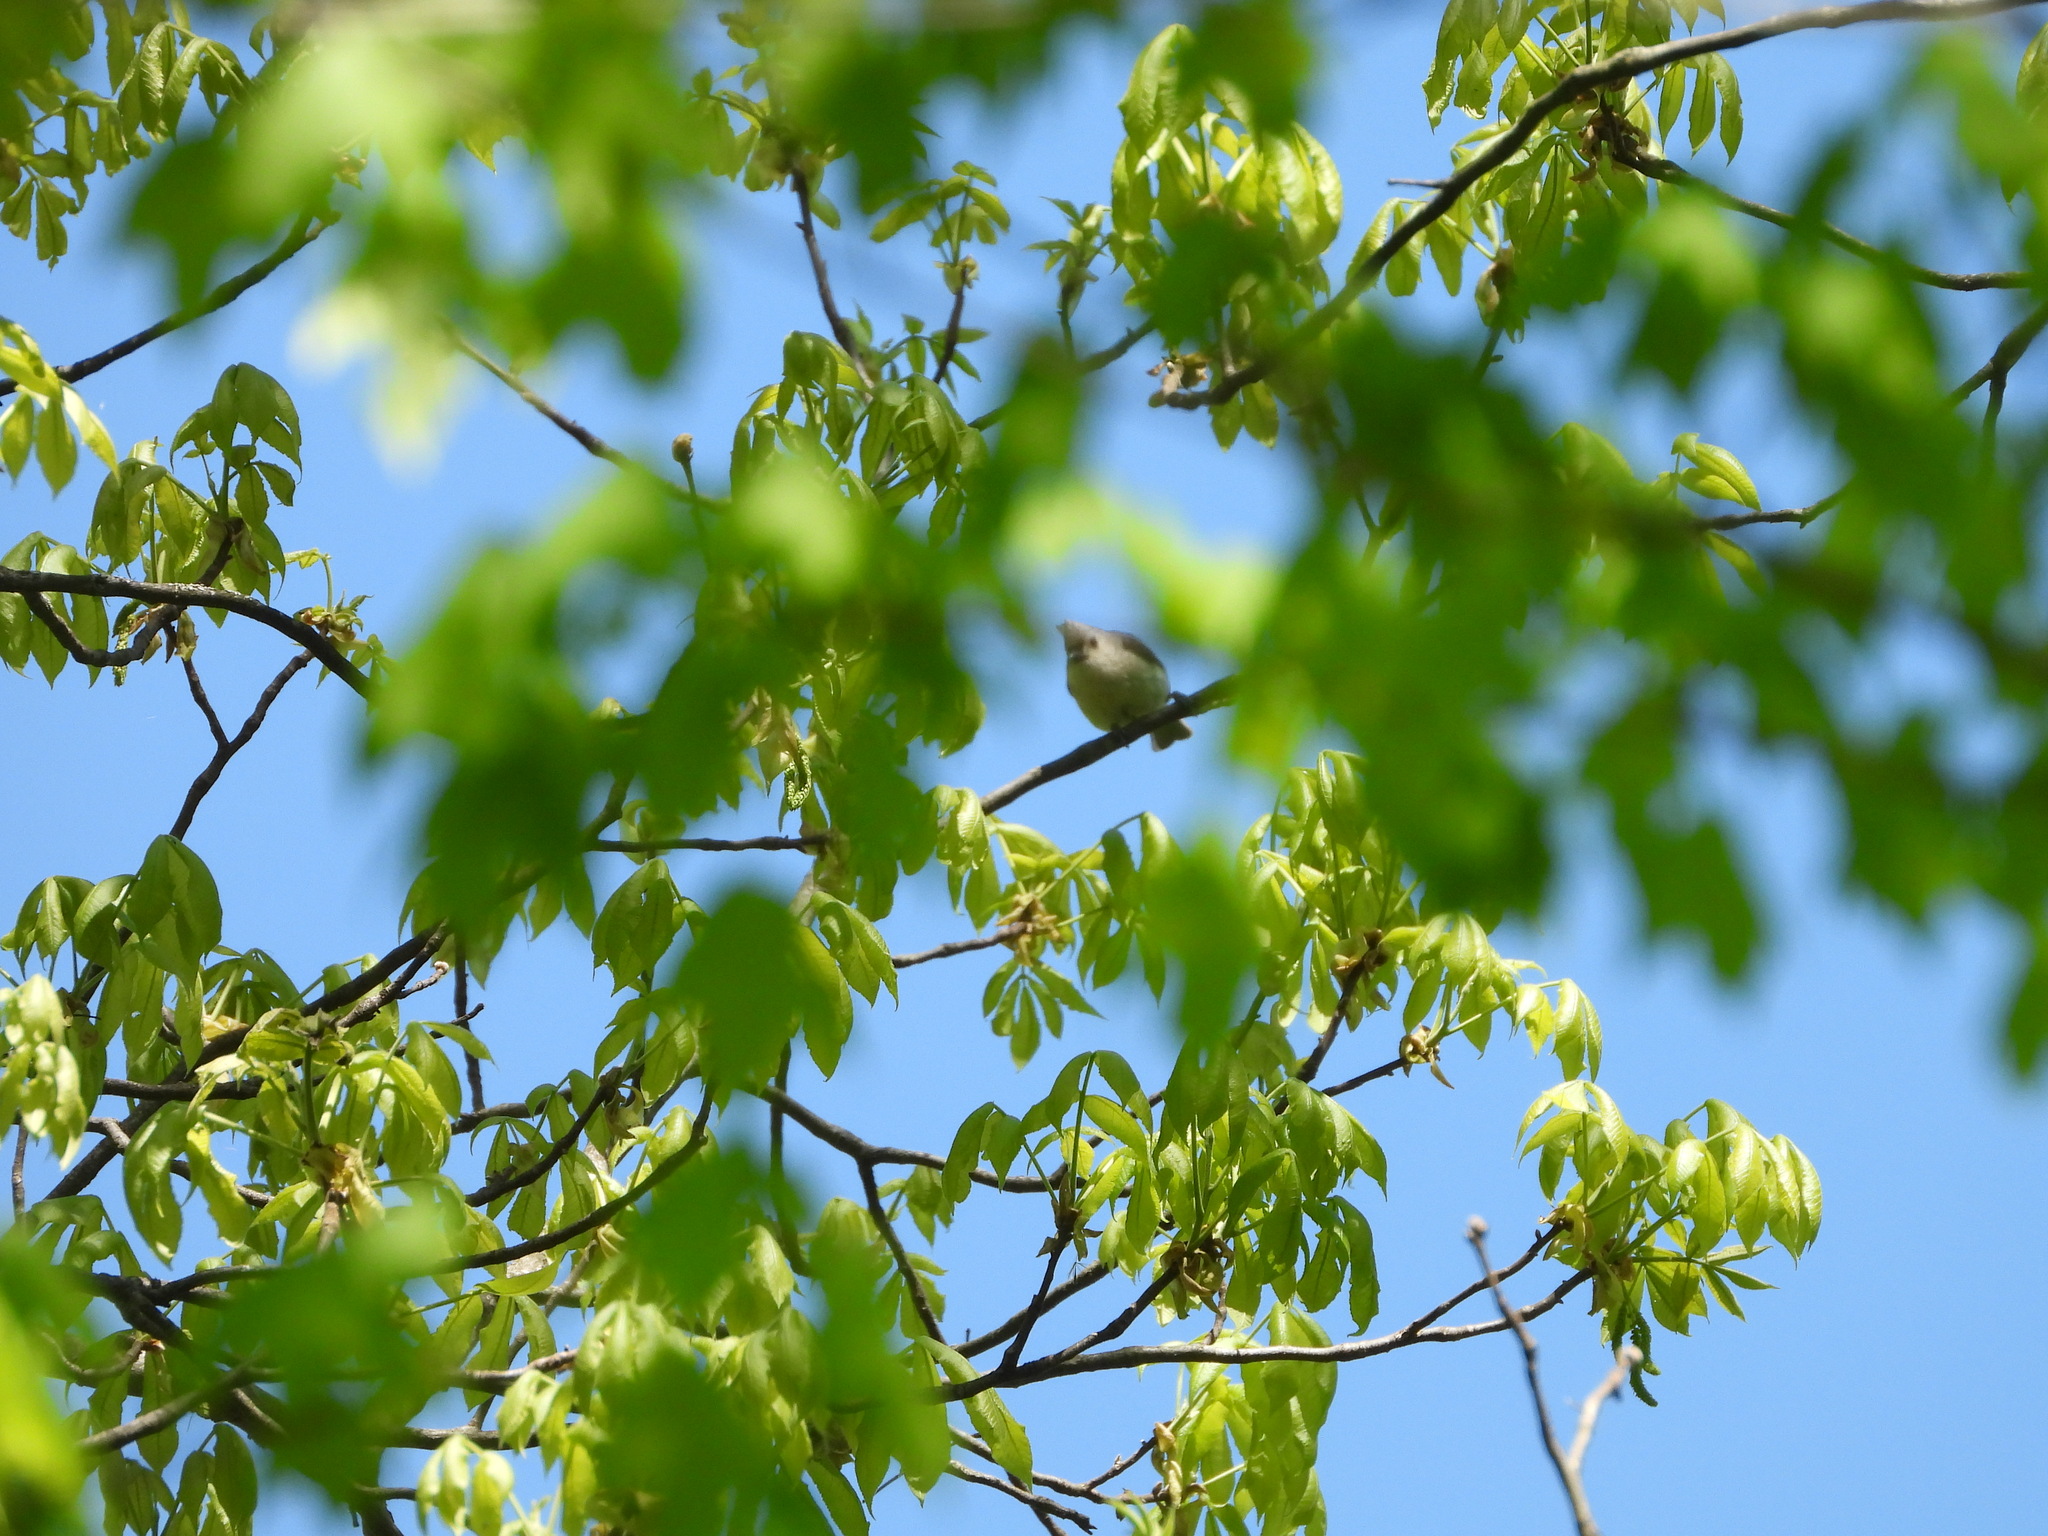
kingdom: Animalia
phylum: Chordata
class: Aves
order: Passeriformes
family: Paridae
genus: Baeolophus
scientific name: Baeolophus bicolor
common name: Tufted titmouse
